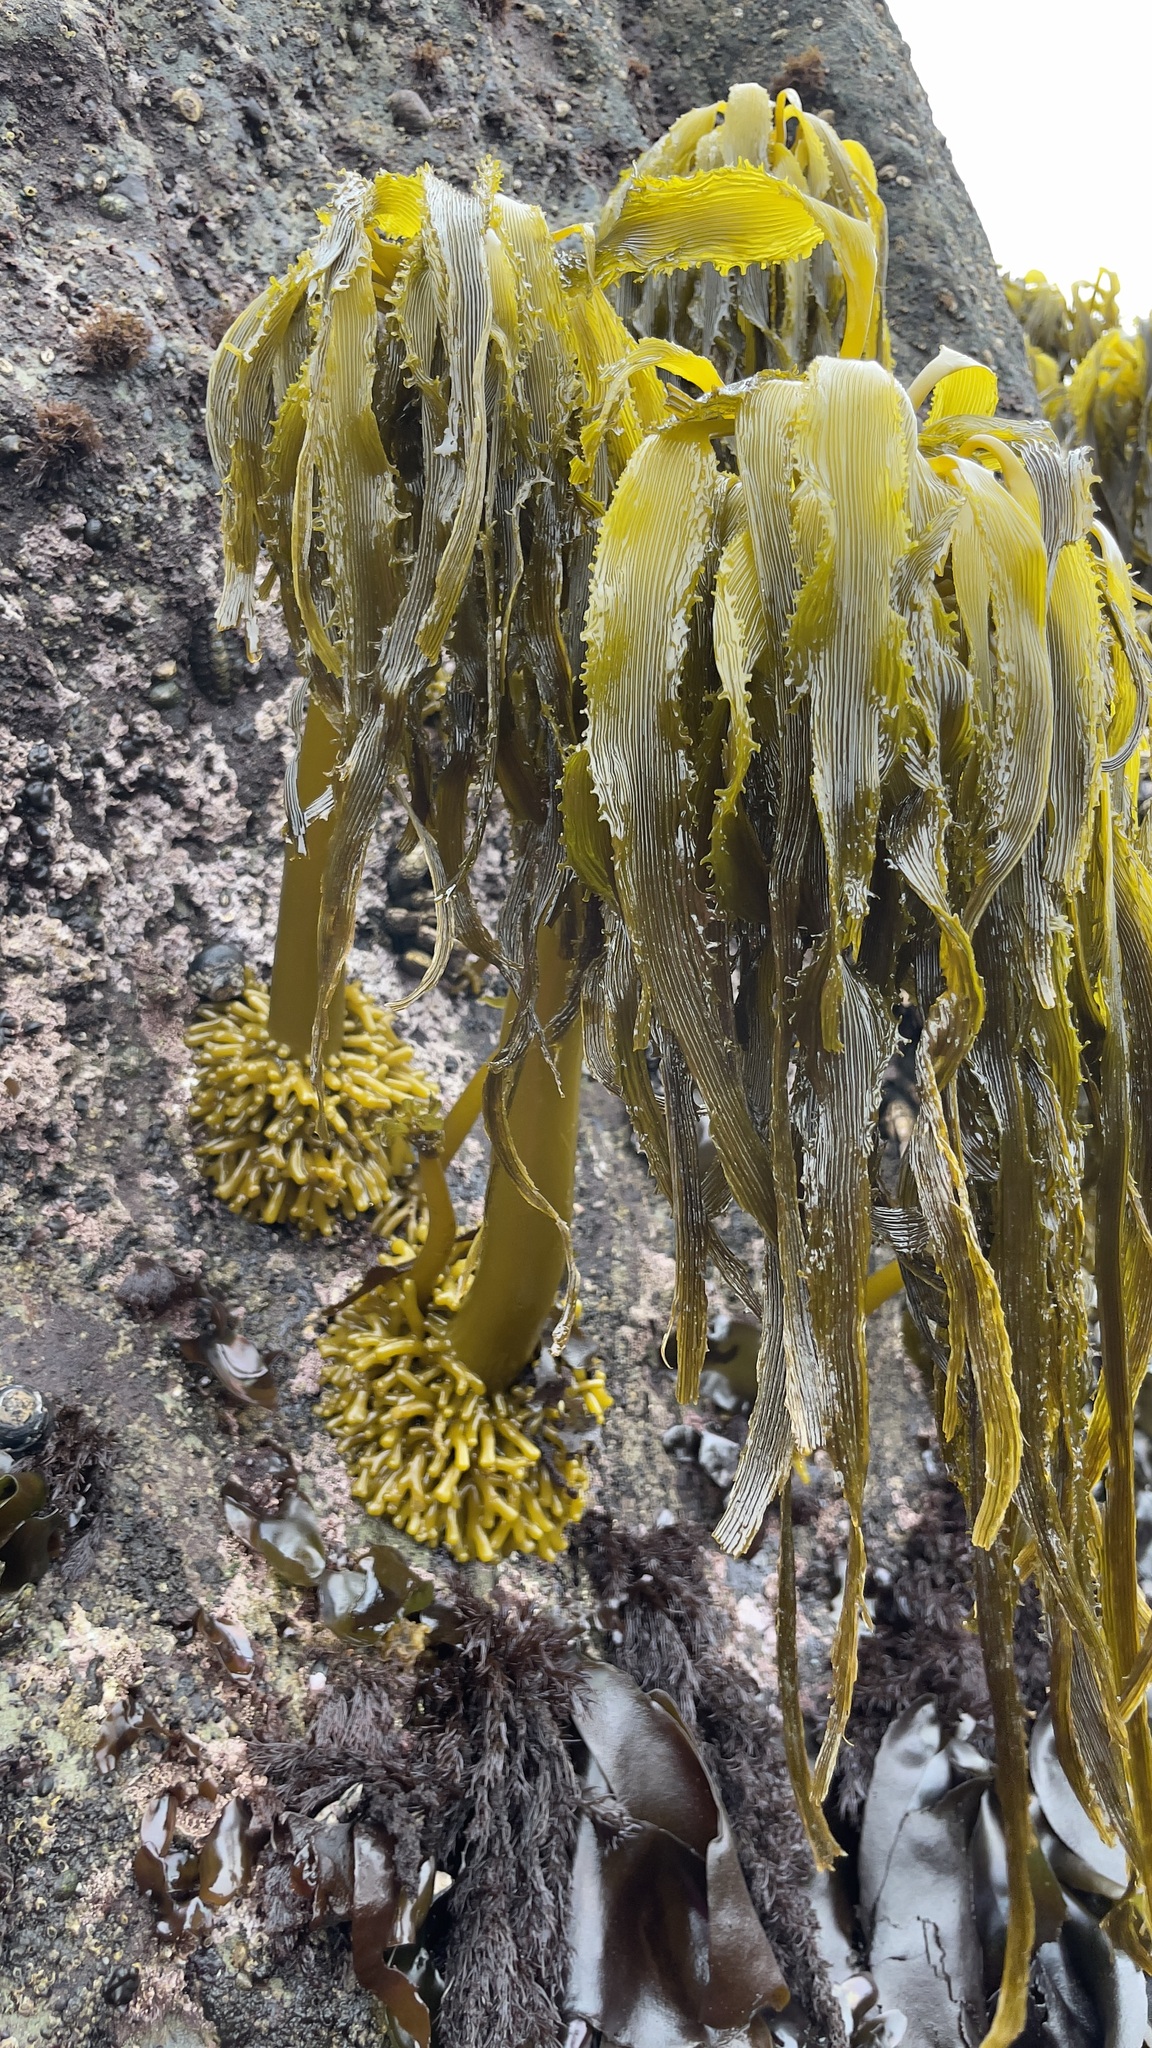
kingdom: Chromista
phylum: Ochrophyta
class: Phaeophyceae
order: Laminariales
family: Laminariaceae
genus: Postelsia
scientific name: Postelsia palmiformis
